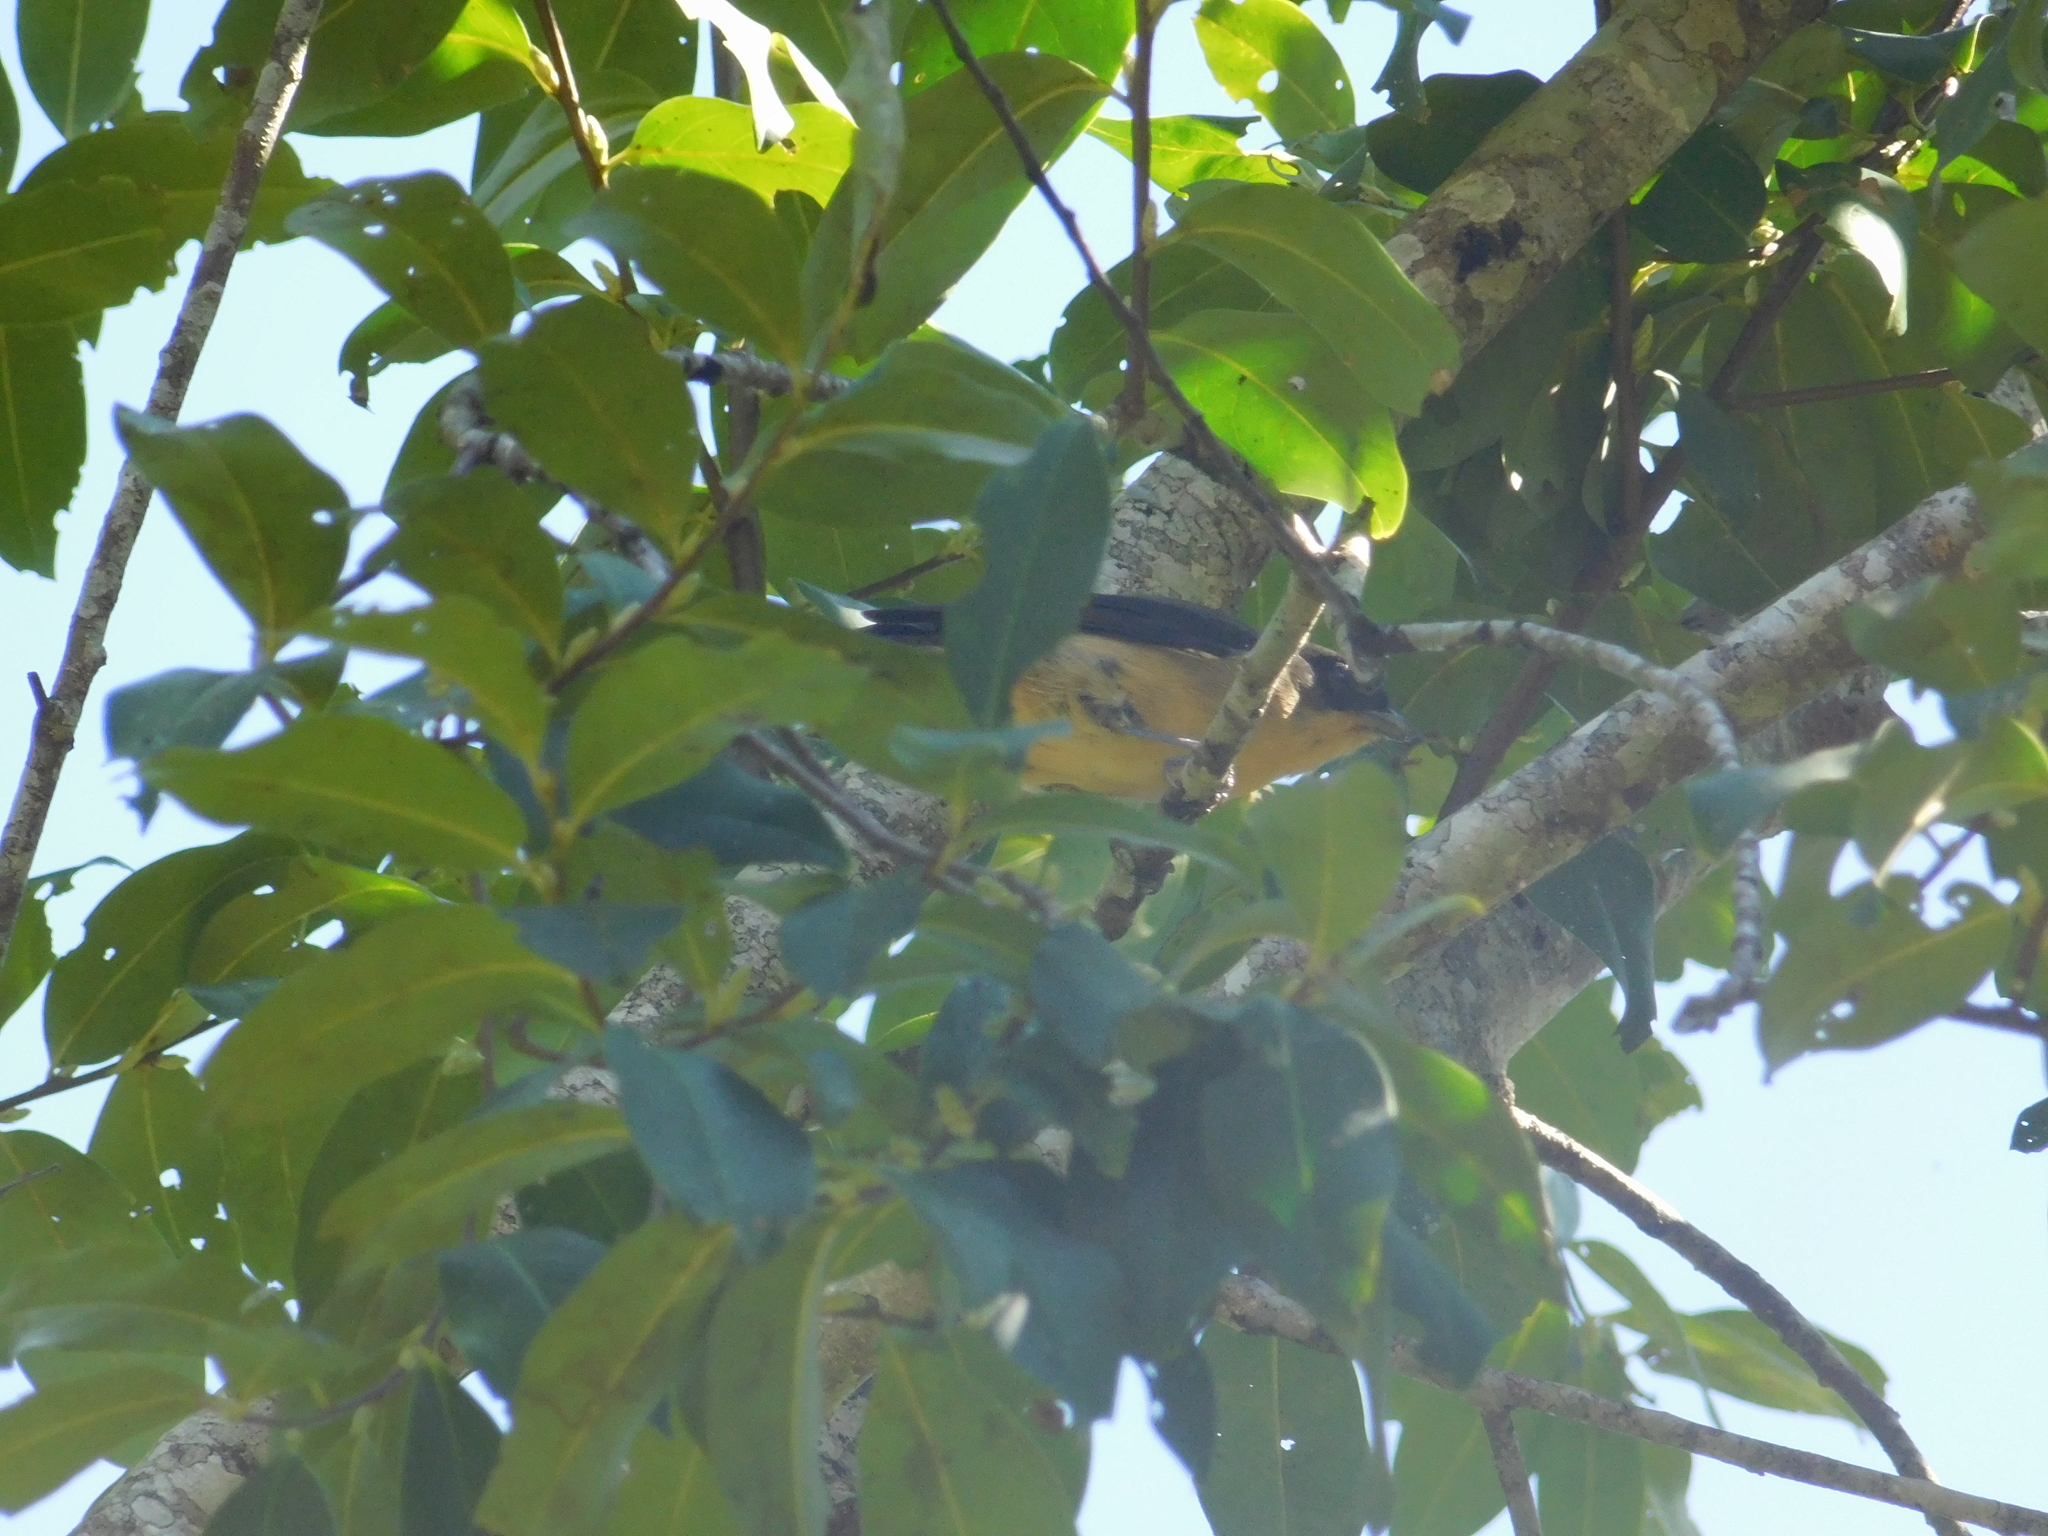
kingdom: Animalia
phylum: Chordata
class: Aves
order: Passeriformes
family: Thraupidae
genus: Trichothraupis
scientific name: Trichothraupis melanops
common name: Black-goggled tanager
